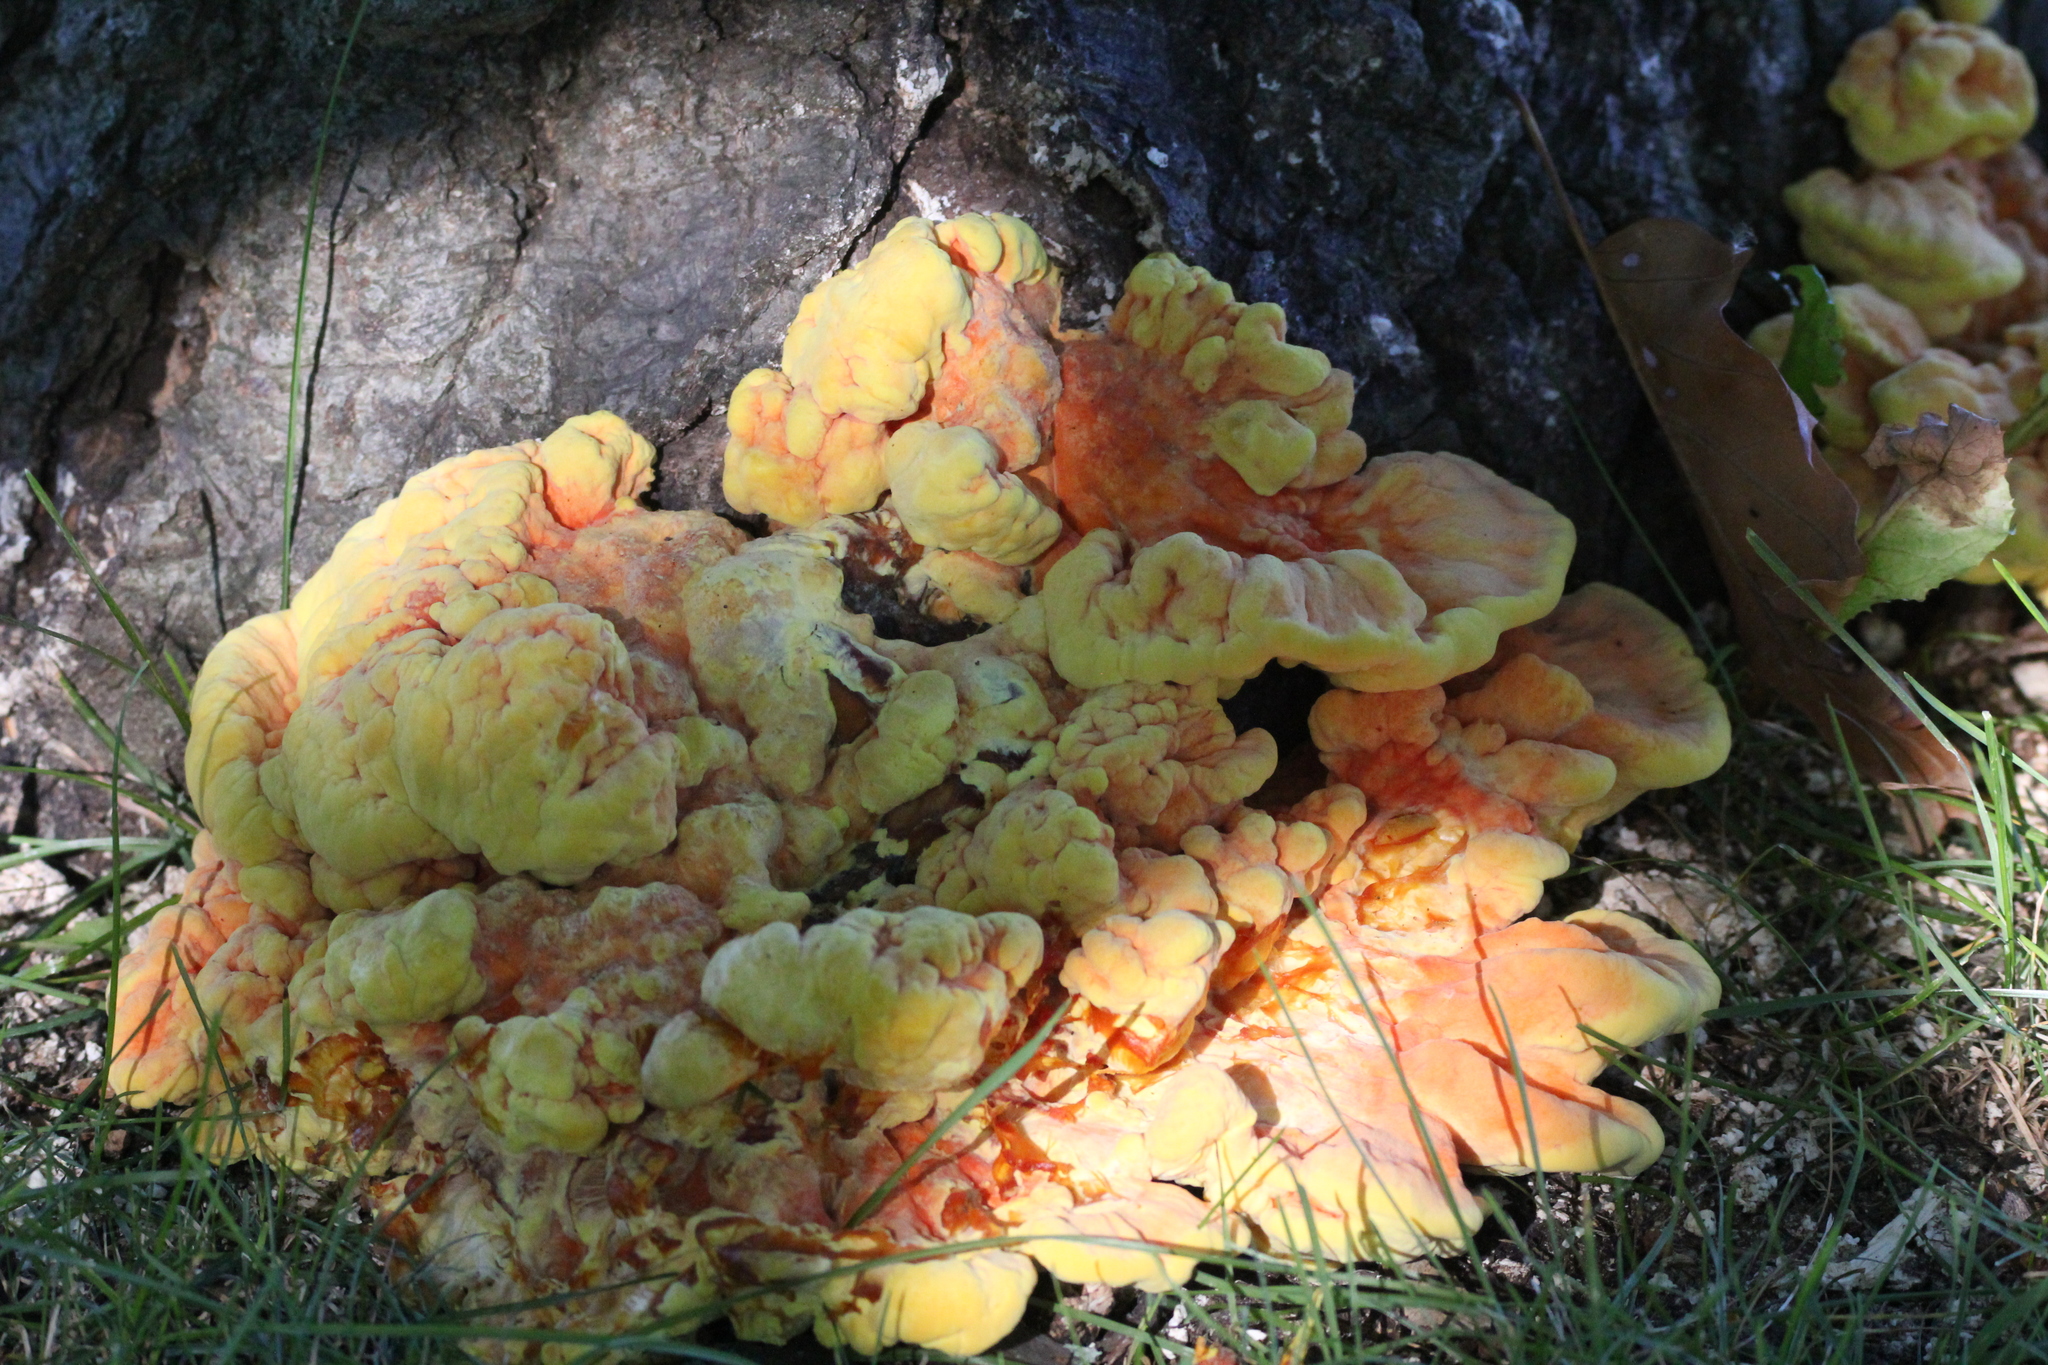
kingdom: Fungi
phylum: Basidiomycota
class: Agaricomycetes
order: Polyporales
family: Laetiporaceae
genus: Laetiporus
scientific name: Laetiporus sulphureus
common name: Chicken of the woods
